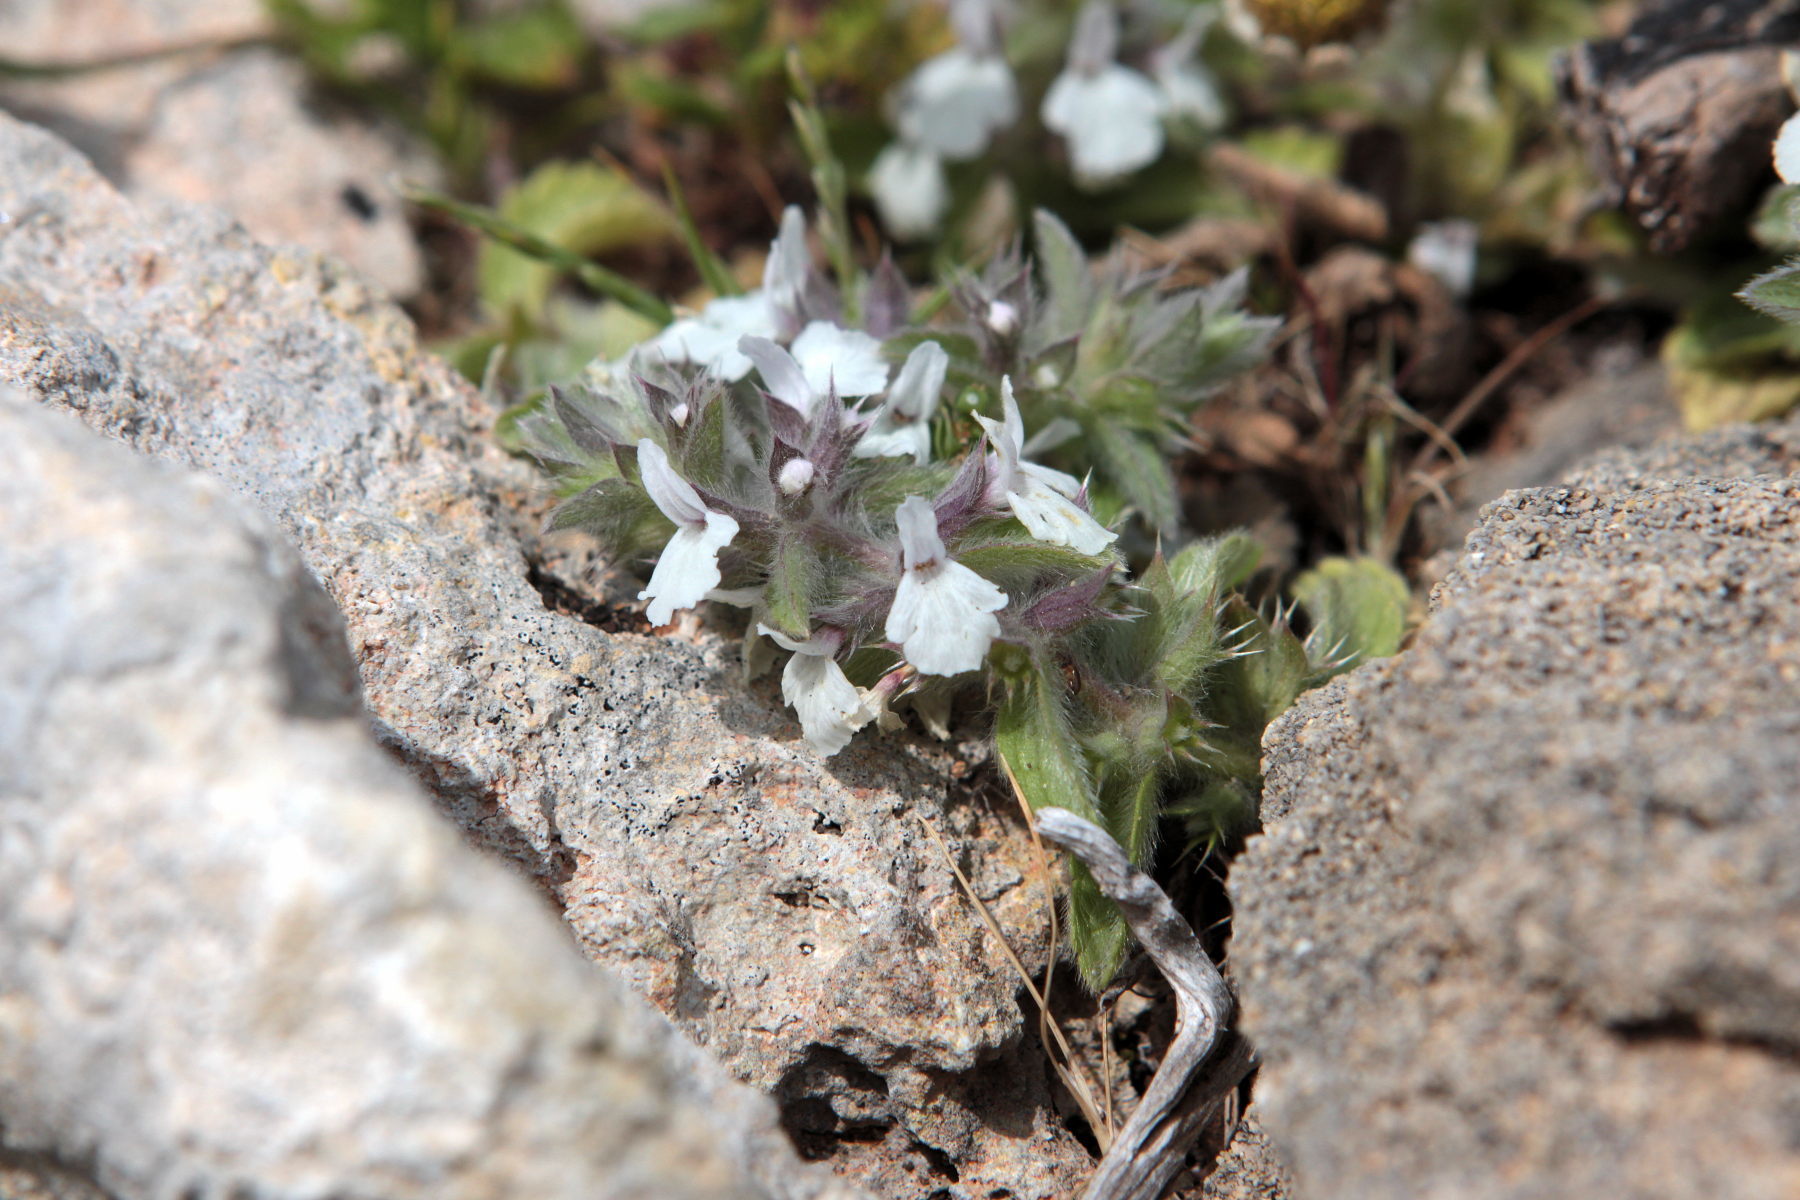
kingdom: Plantae
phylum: Tracheophyta
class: Magnoliopsida
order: Lamiales
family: Lamiaceae
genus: Sideritis
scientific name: Sideritis romana
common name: Simplebeak ironwort
